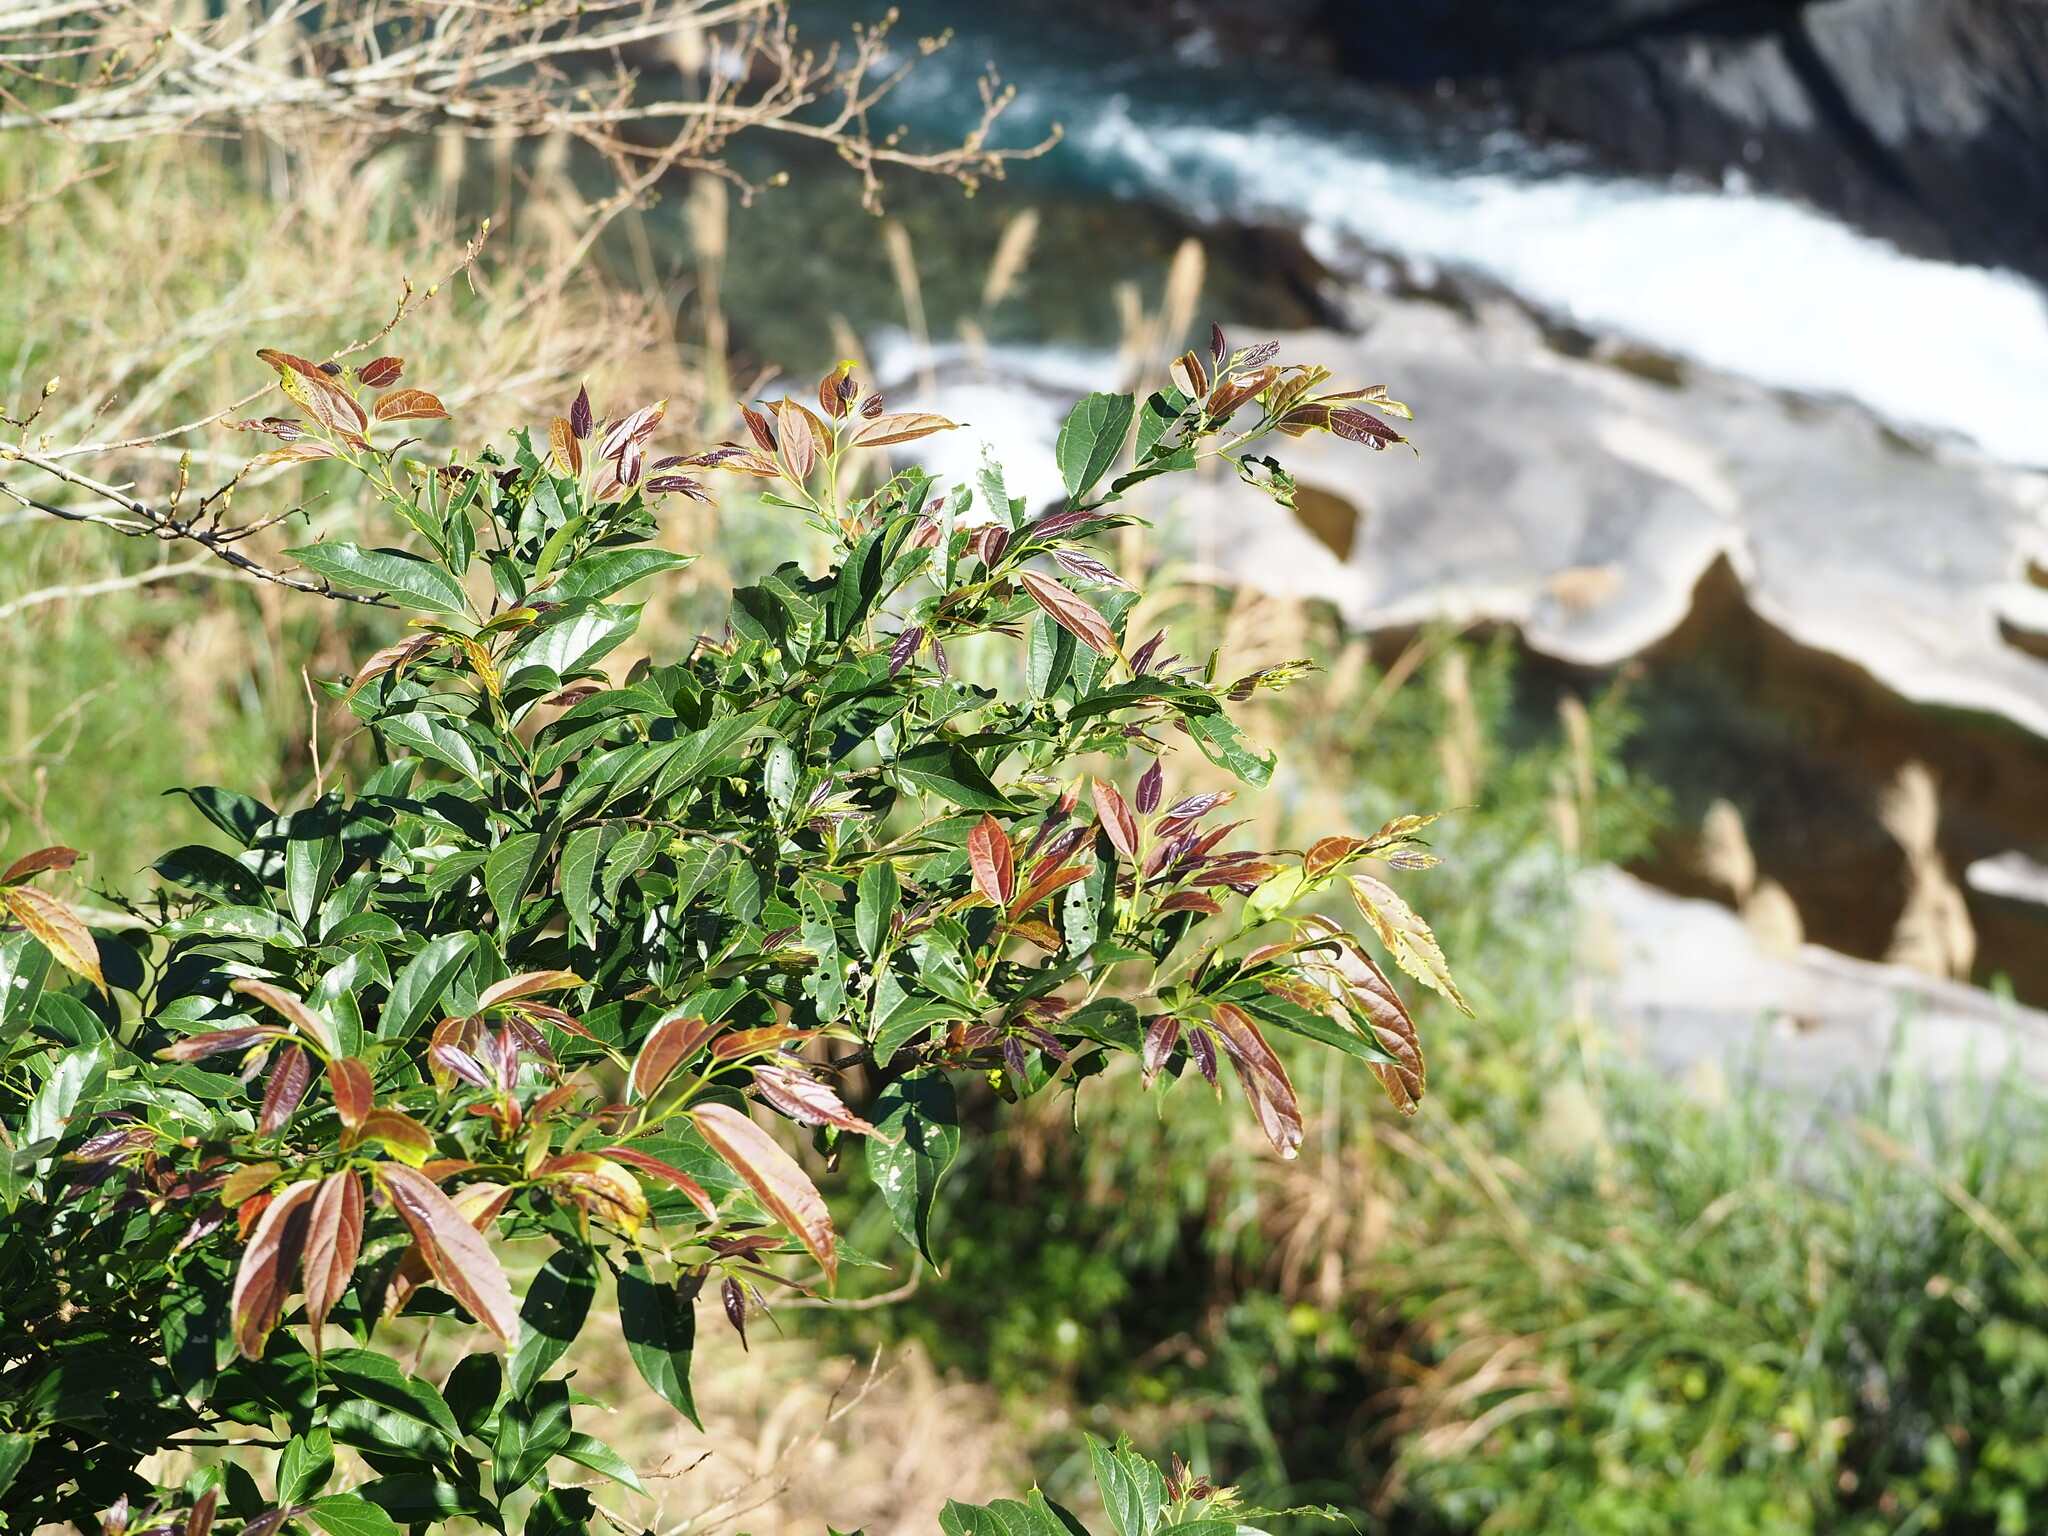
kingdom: Plantae
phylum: Tracheophyta
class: Magnoliopsida
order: Rosales
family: Cannabaceae
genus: Celtis
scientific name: Celtis tetrandra
